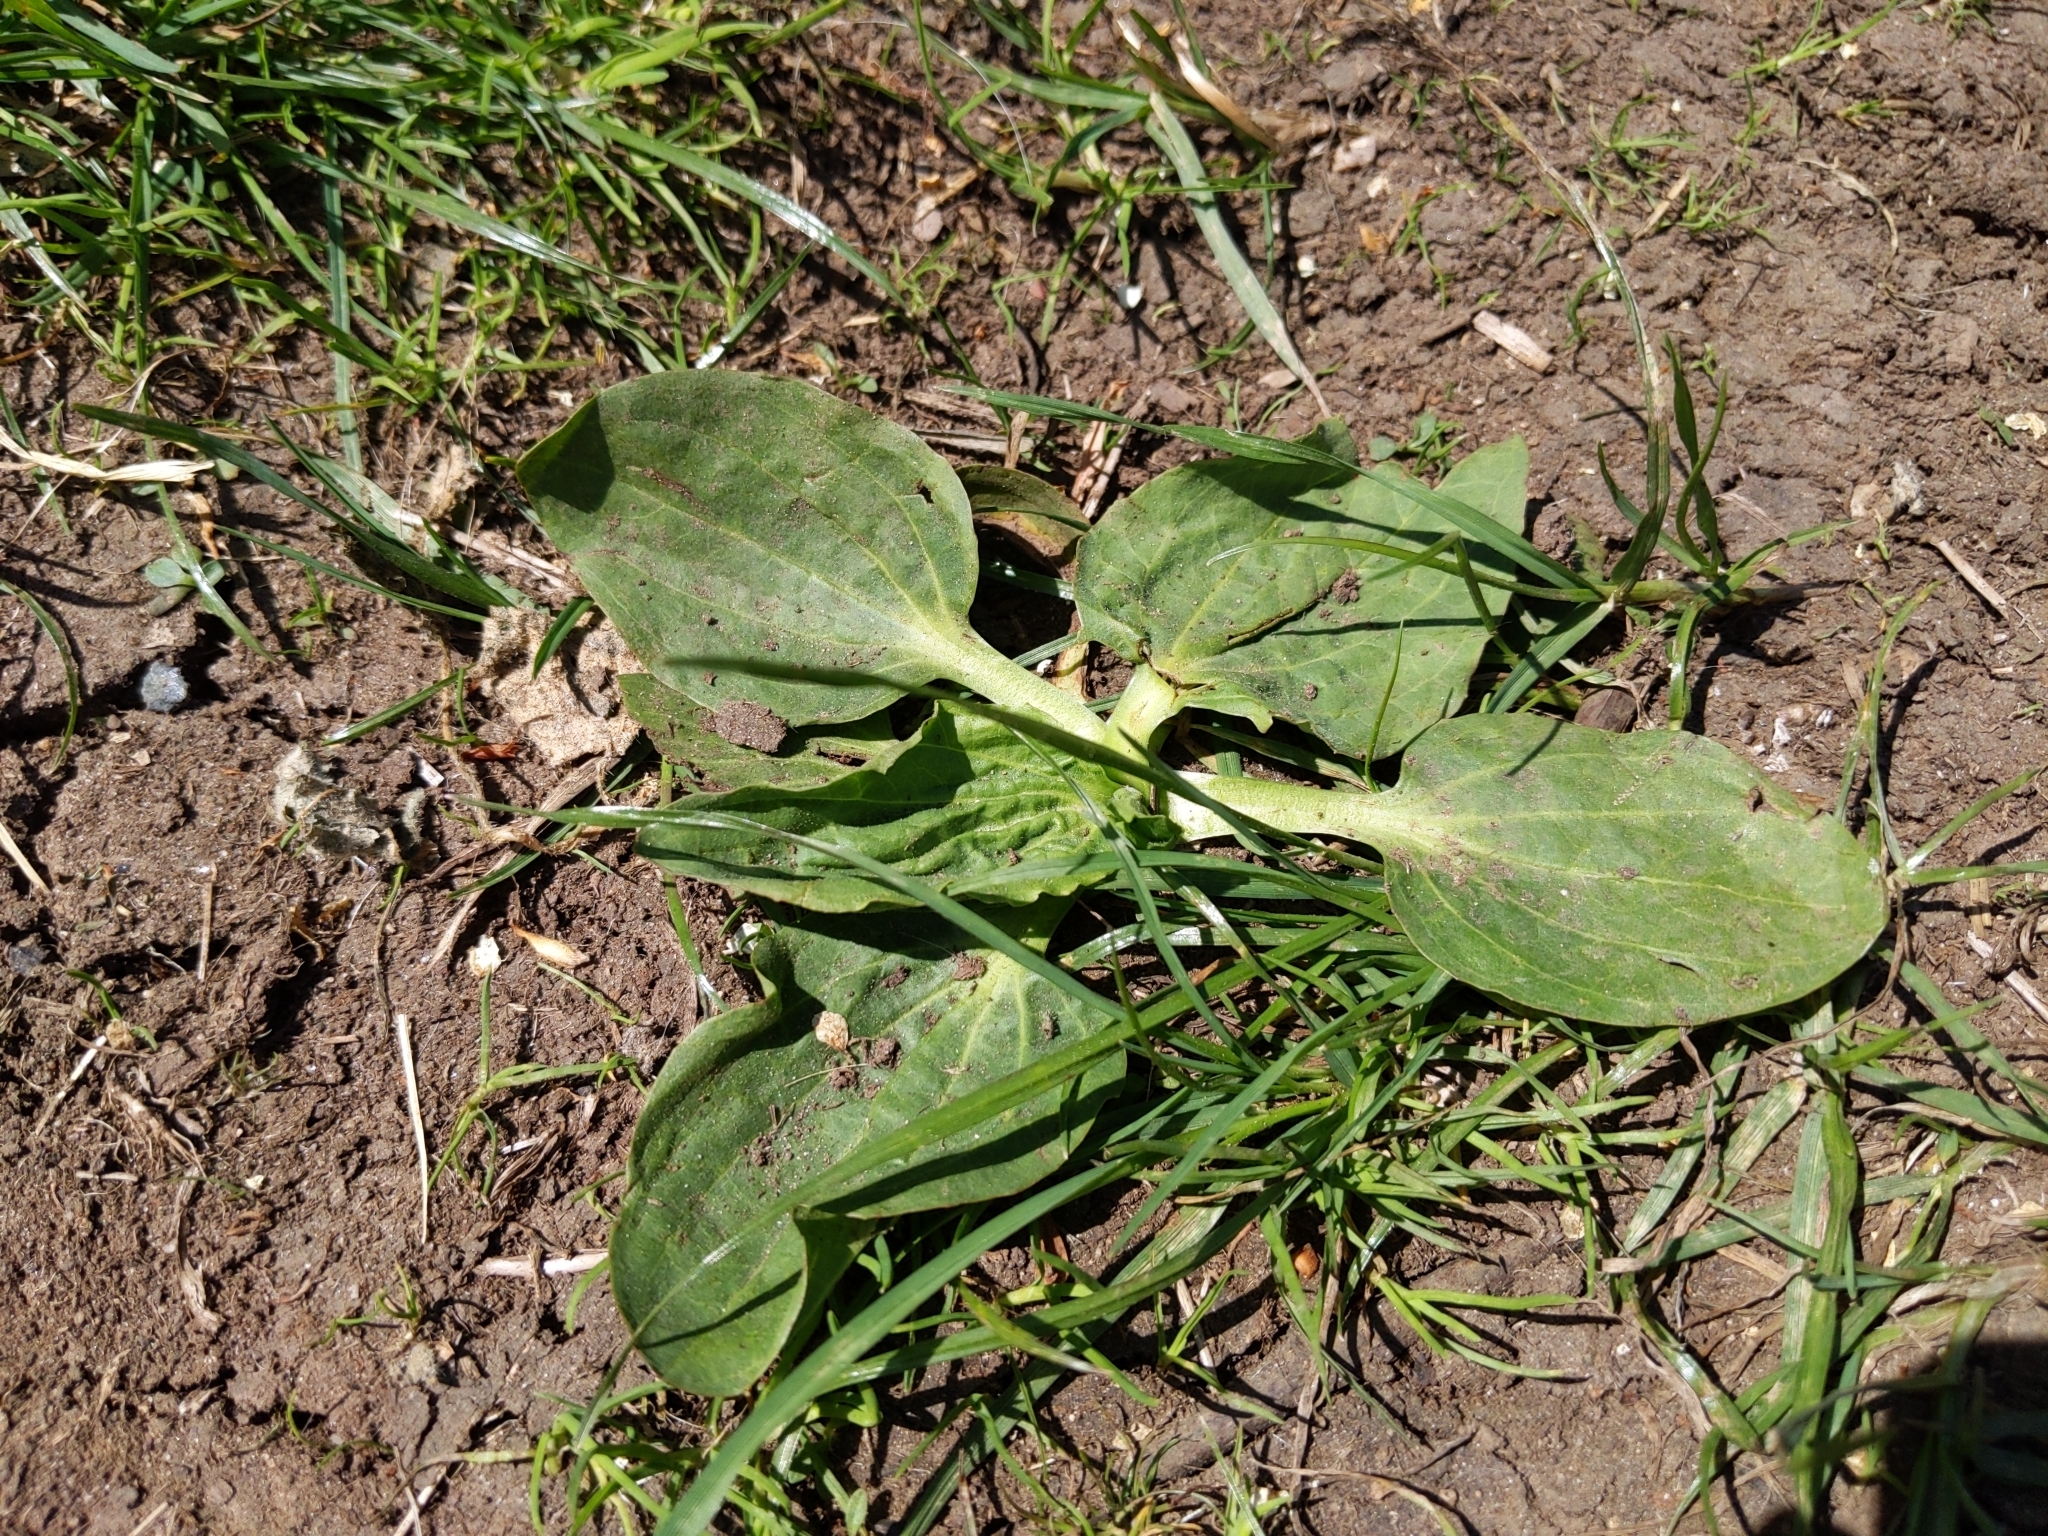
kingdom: Plantae
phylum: Tracheophyta
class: Magnoliopsida
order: Lamiales
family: Plantaginaceae
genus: Plantago
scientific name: Plantago major
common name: Common plantain
